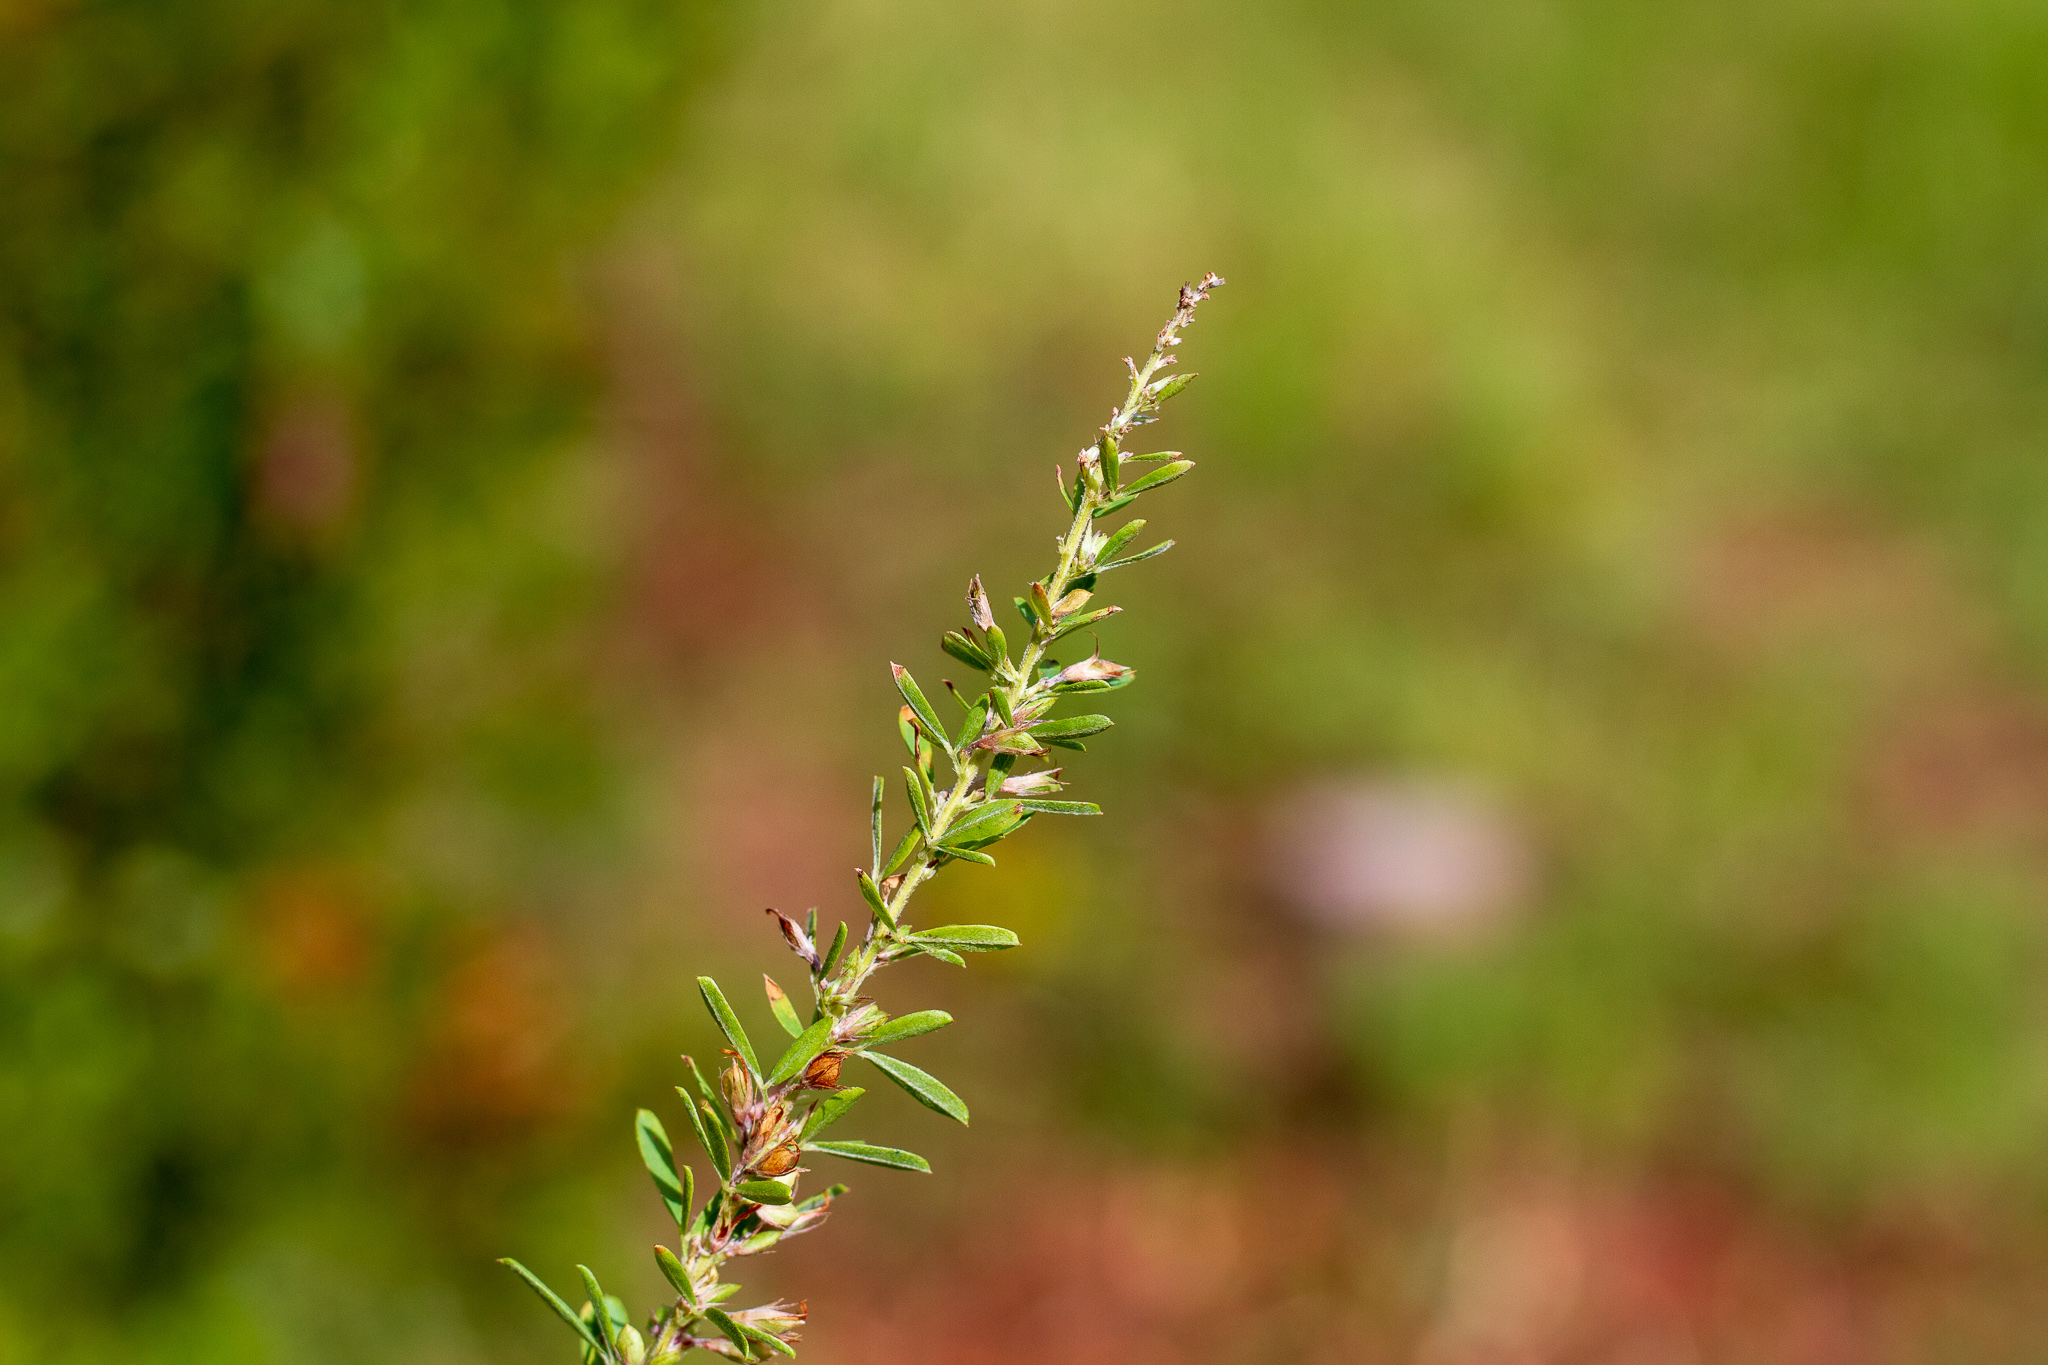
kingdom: Plantae
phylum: Tracheophyta
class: Magnoliopsida
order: Fabales
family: Fabaceae
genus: Lespedeza
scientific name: Lespedeza cuneata
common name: Chinese bush-clover
